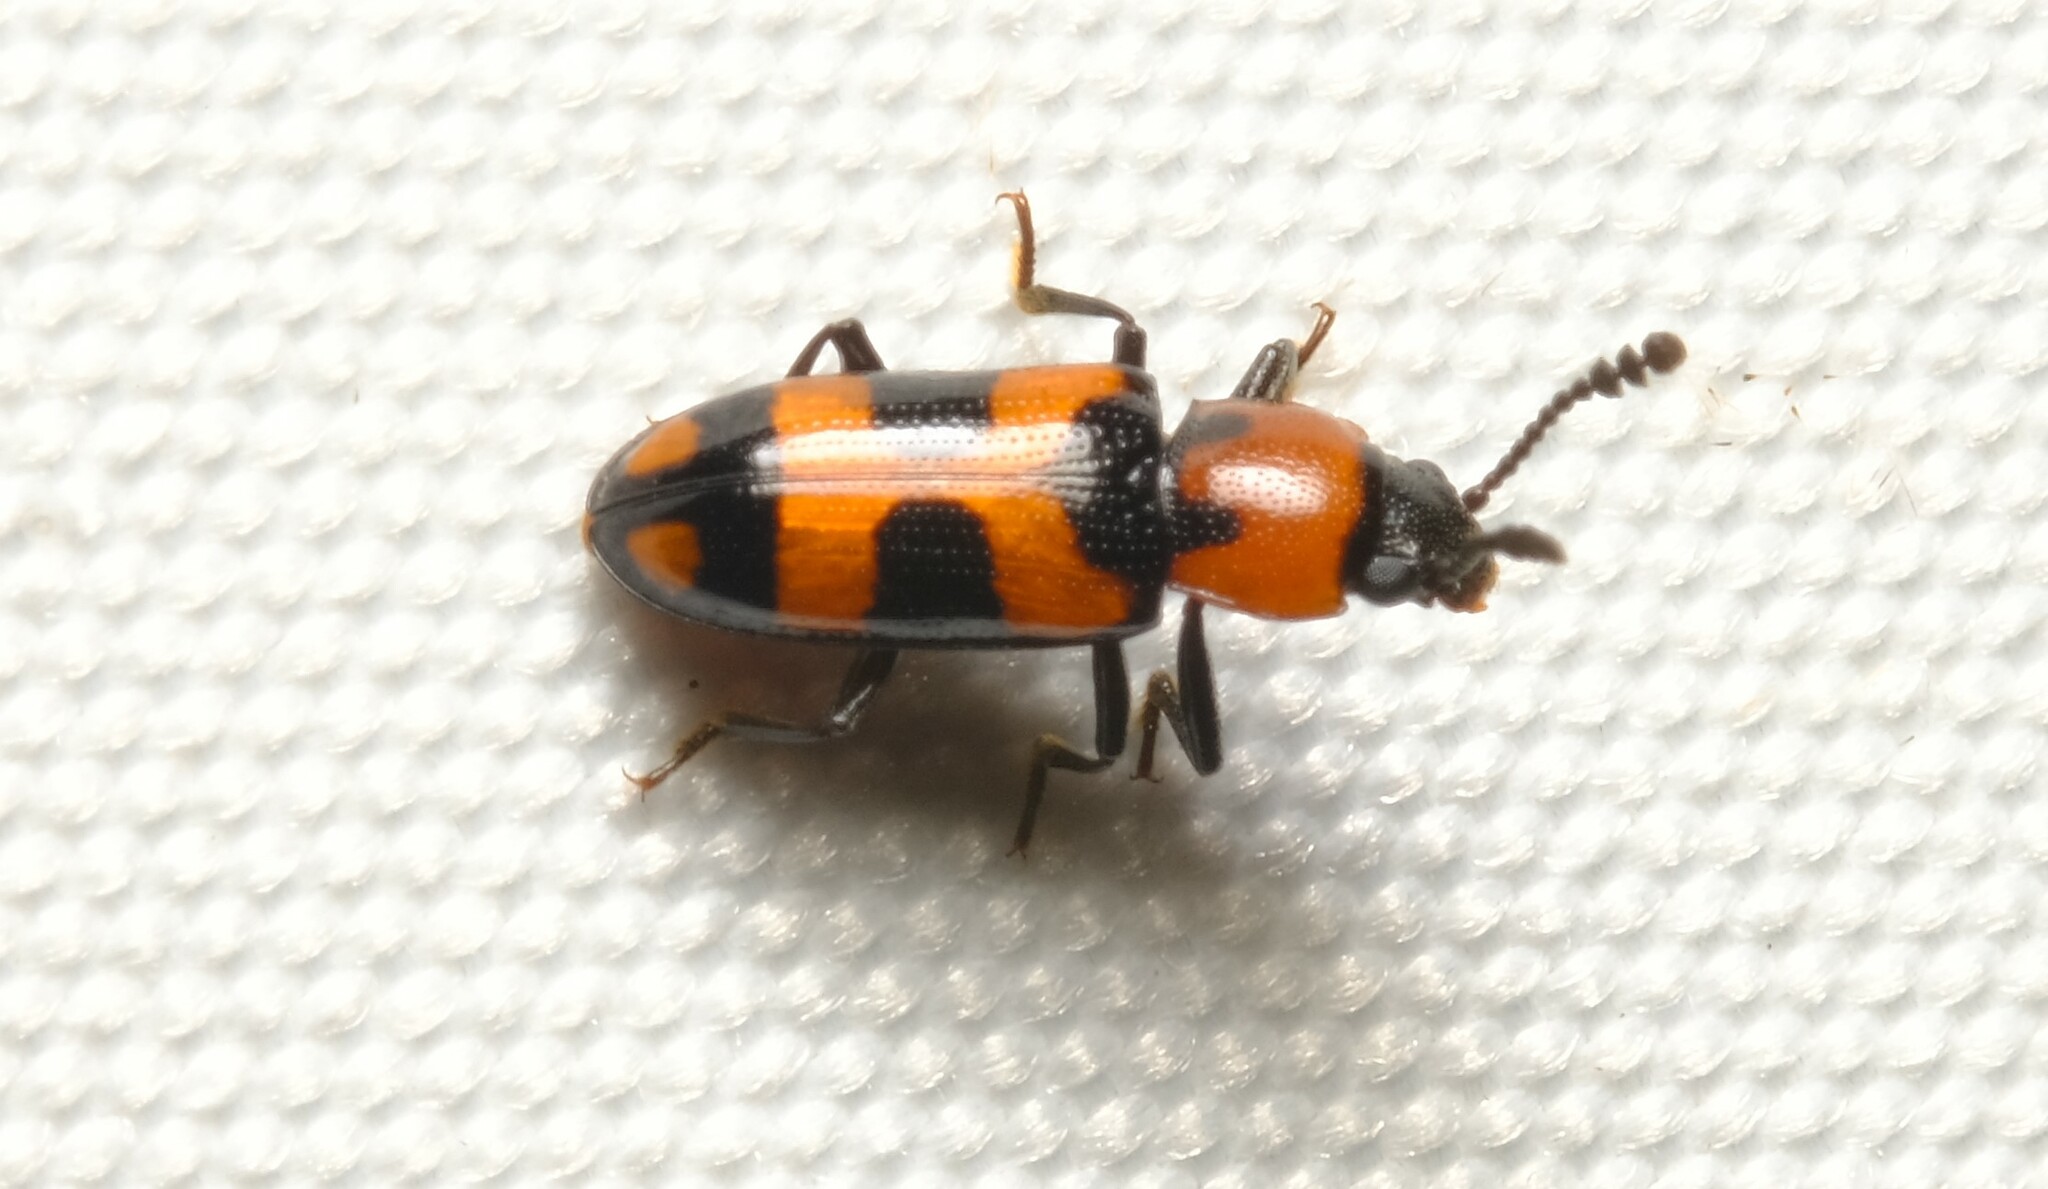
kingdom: Animalia
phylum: Arthropoda
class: Insecta
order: Coleoptera
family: Erotylidae
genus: Thallis
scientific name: Thallis
